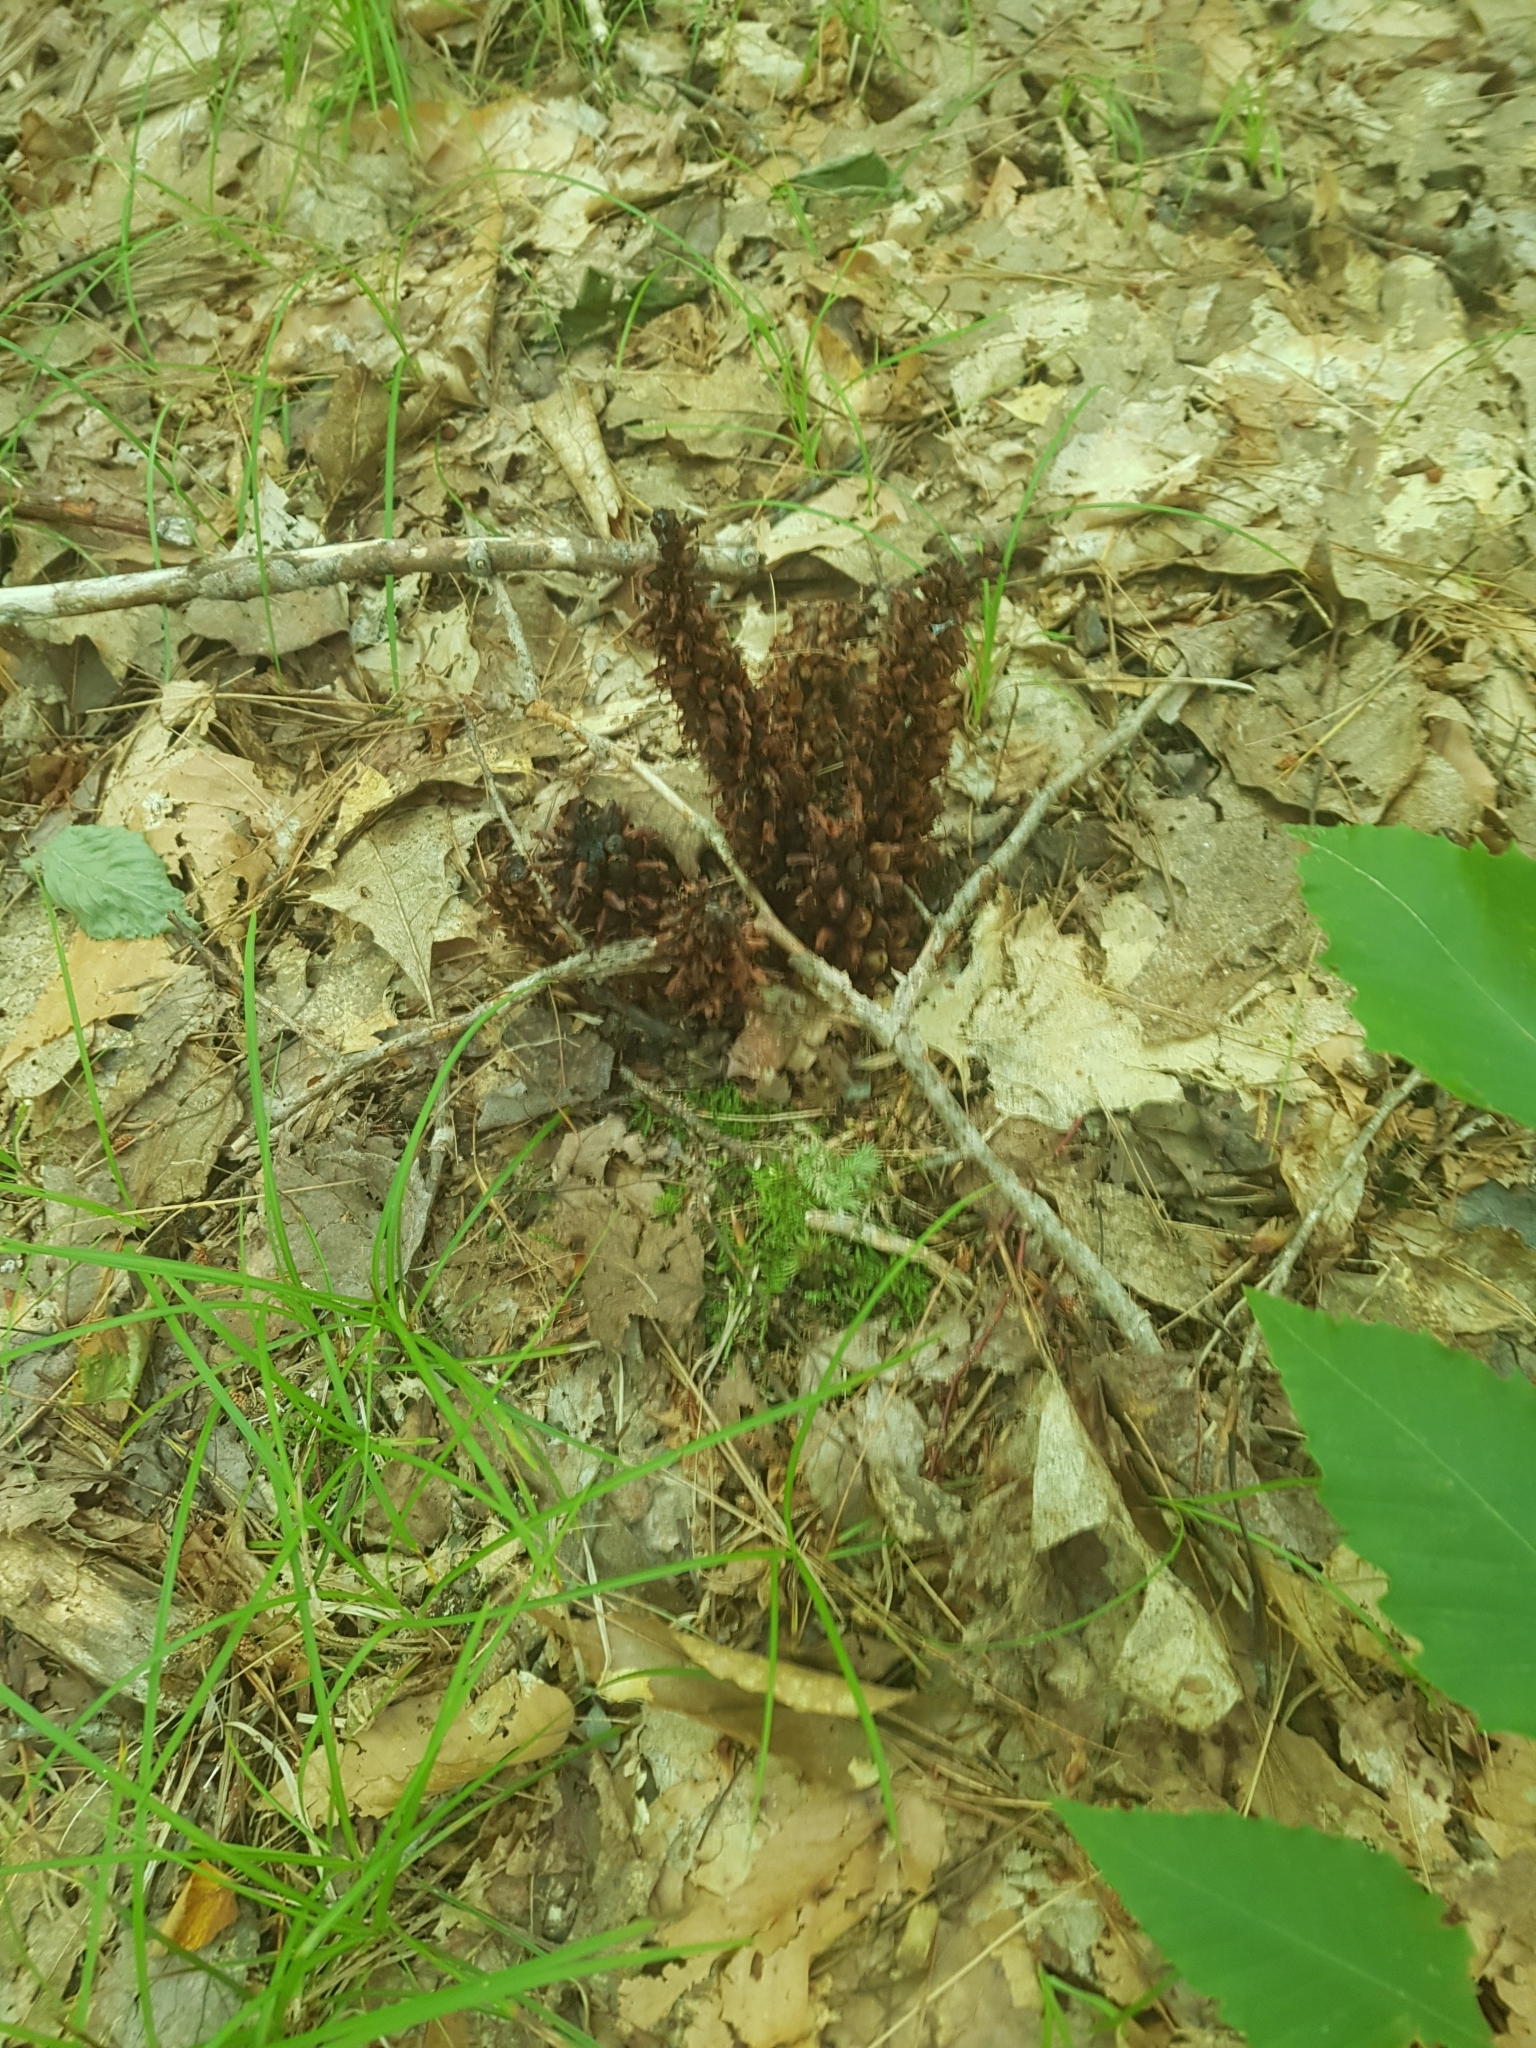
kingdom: Plantae
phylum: Tracheophyta
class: Magnoliopsida
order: Lamiales
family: Orobanchaceae
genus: Conopholis
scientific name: Conopholis americana
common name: American cancer-root
